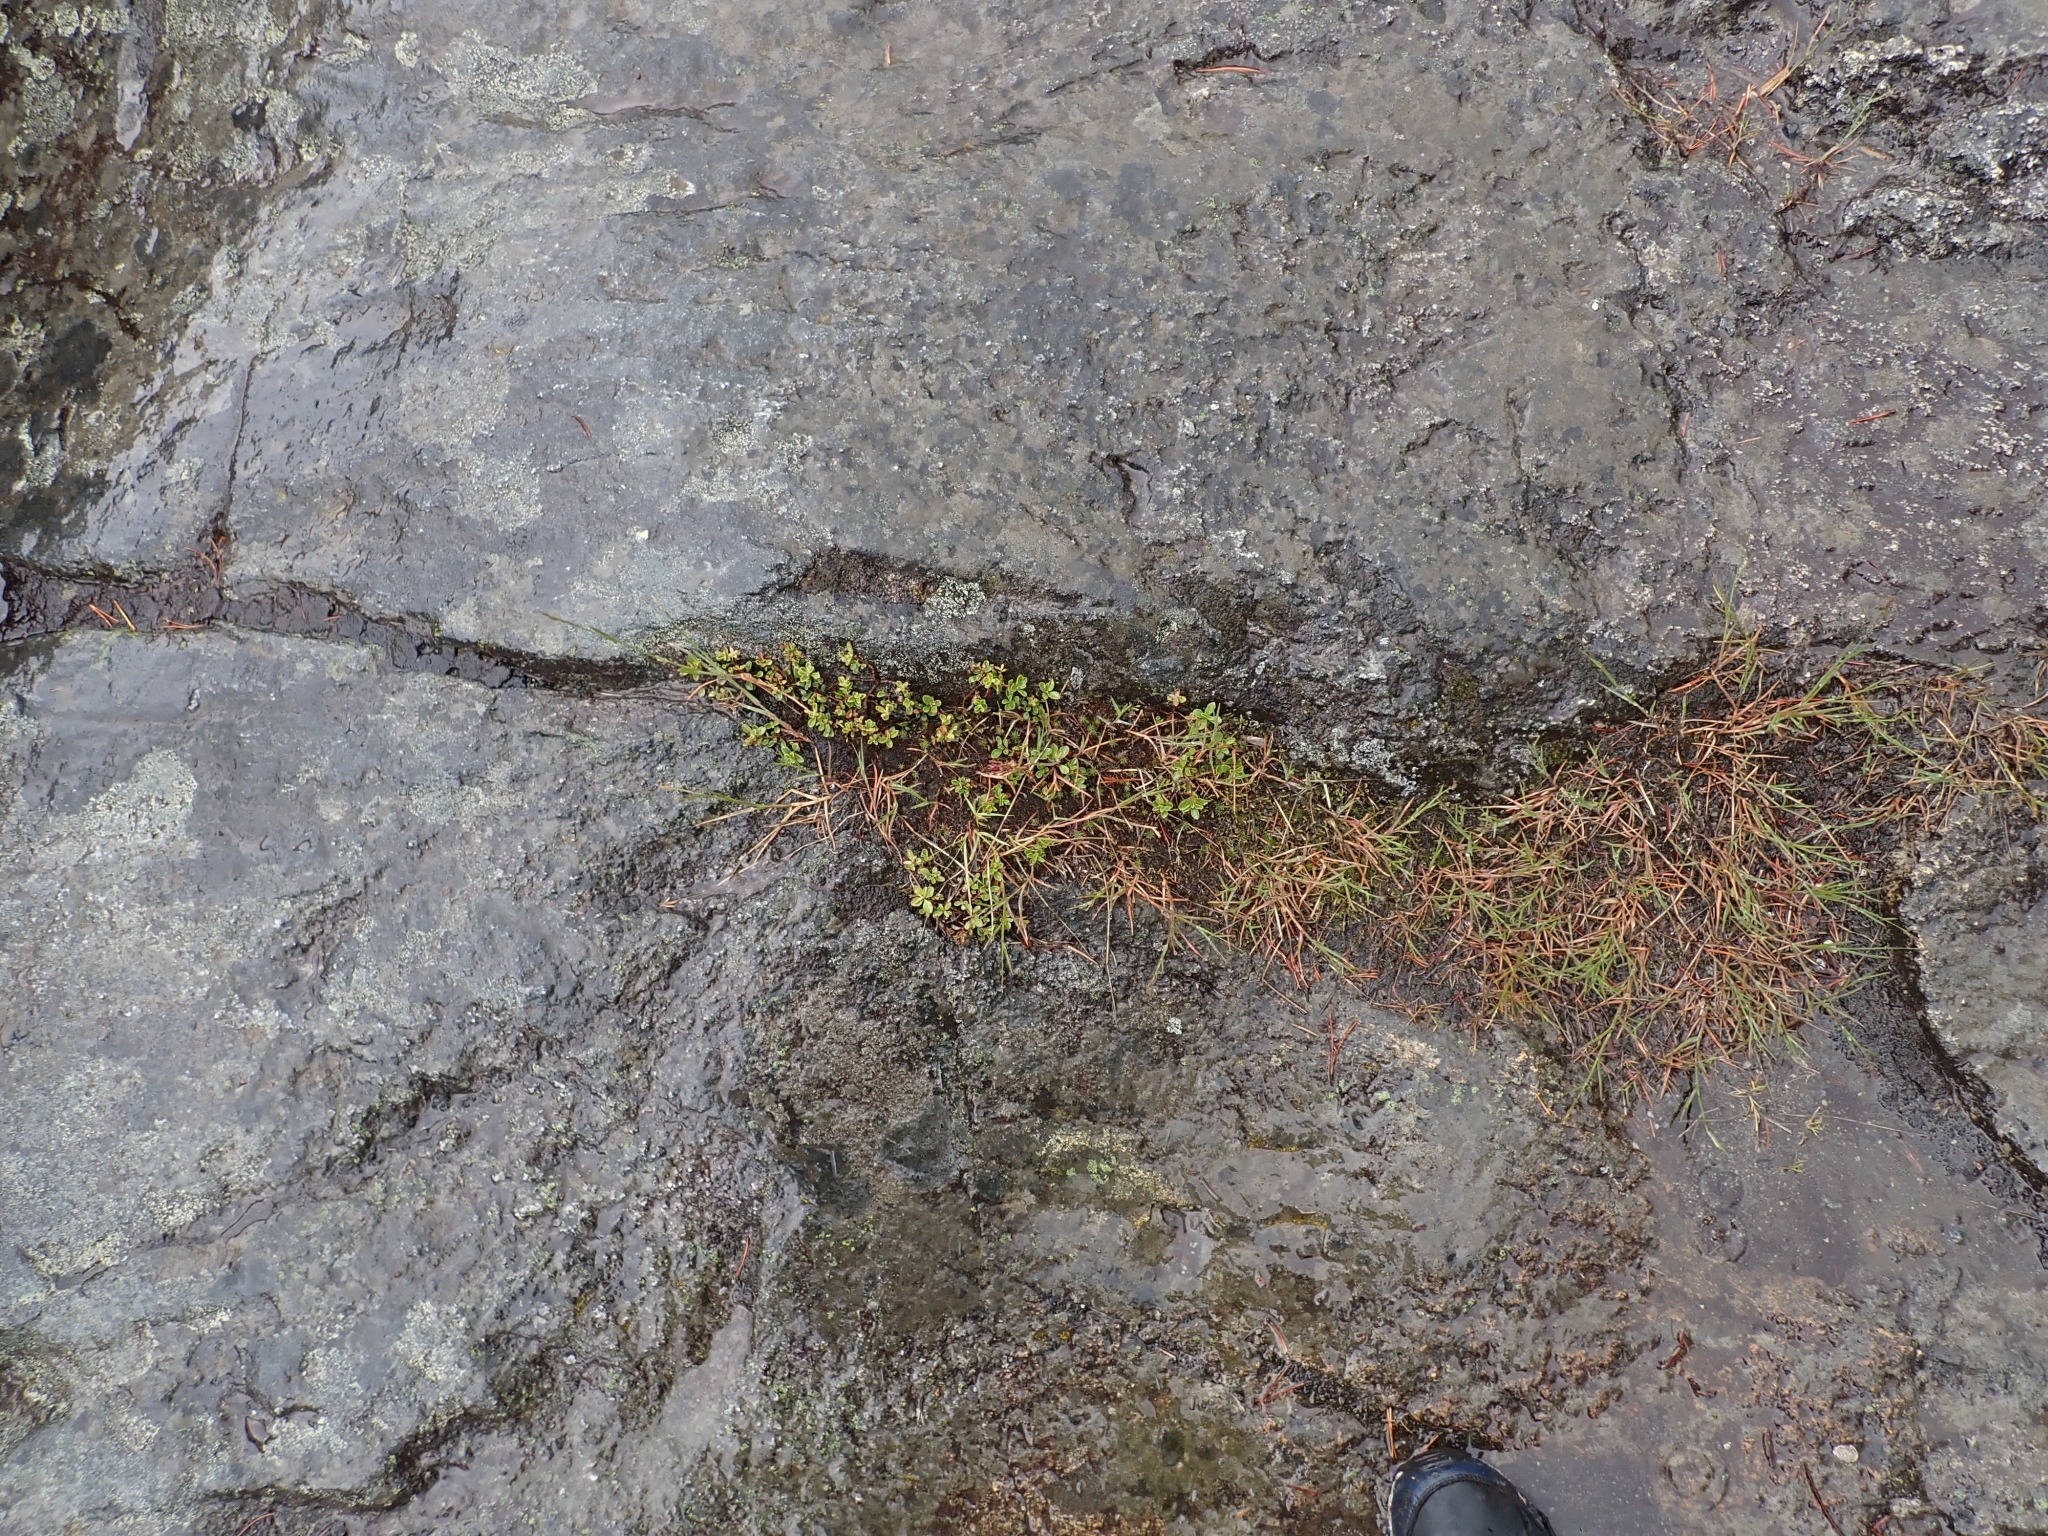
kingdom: Plantae
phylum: Tracheophyta
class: Magnoliopsida
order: Lamiales
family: Plantaginaceae
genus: Penstemon
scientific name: Penstemon davidsonii
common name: Davidson's penstemon
